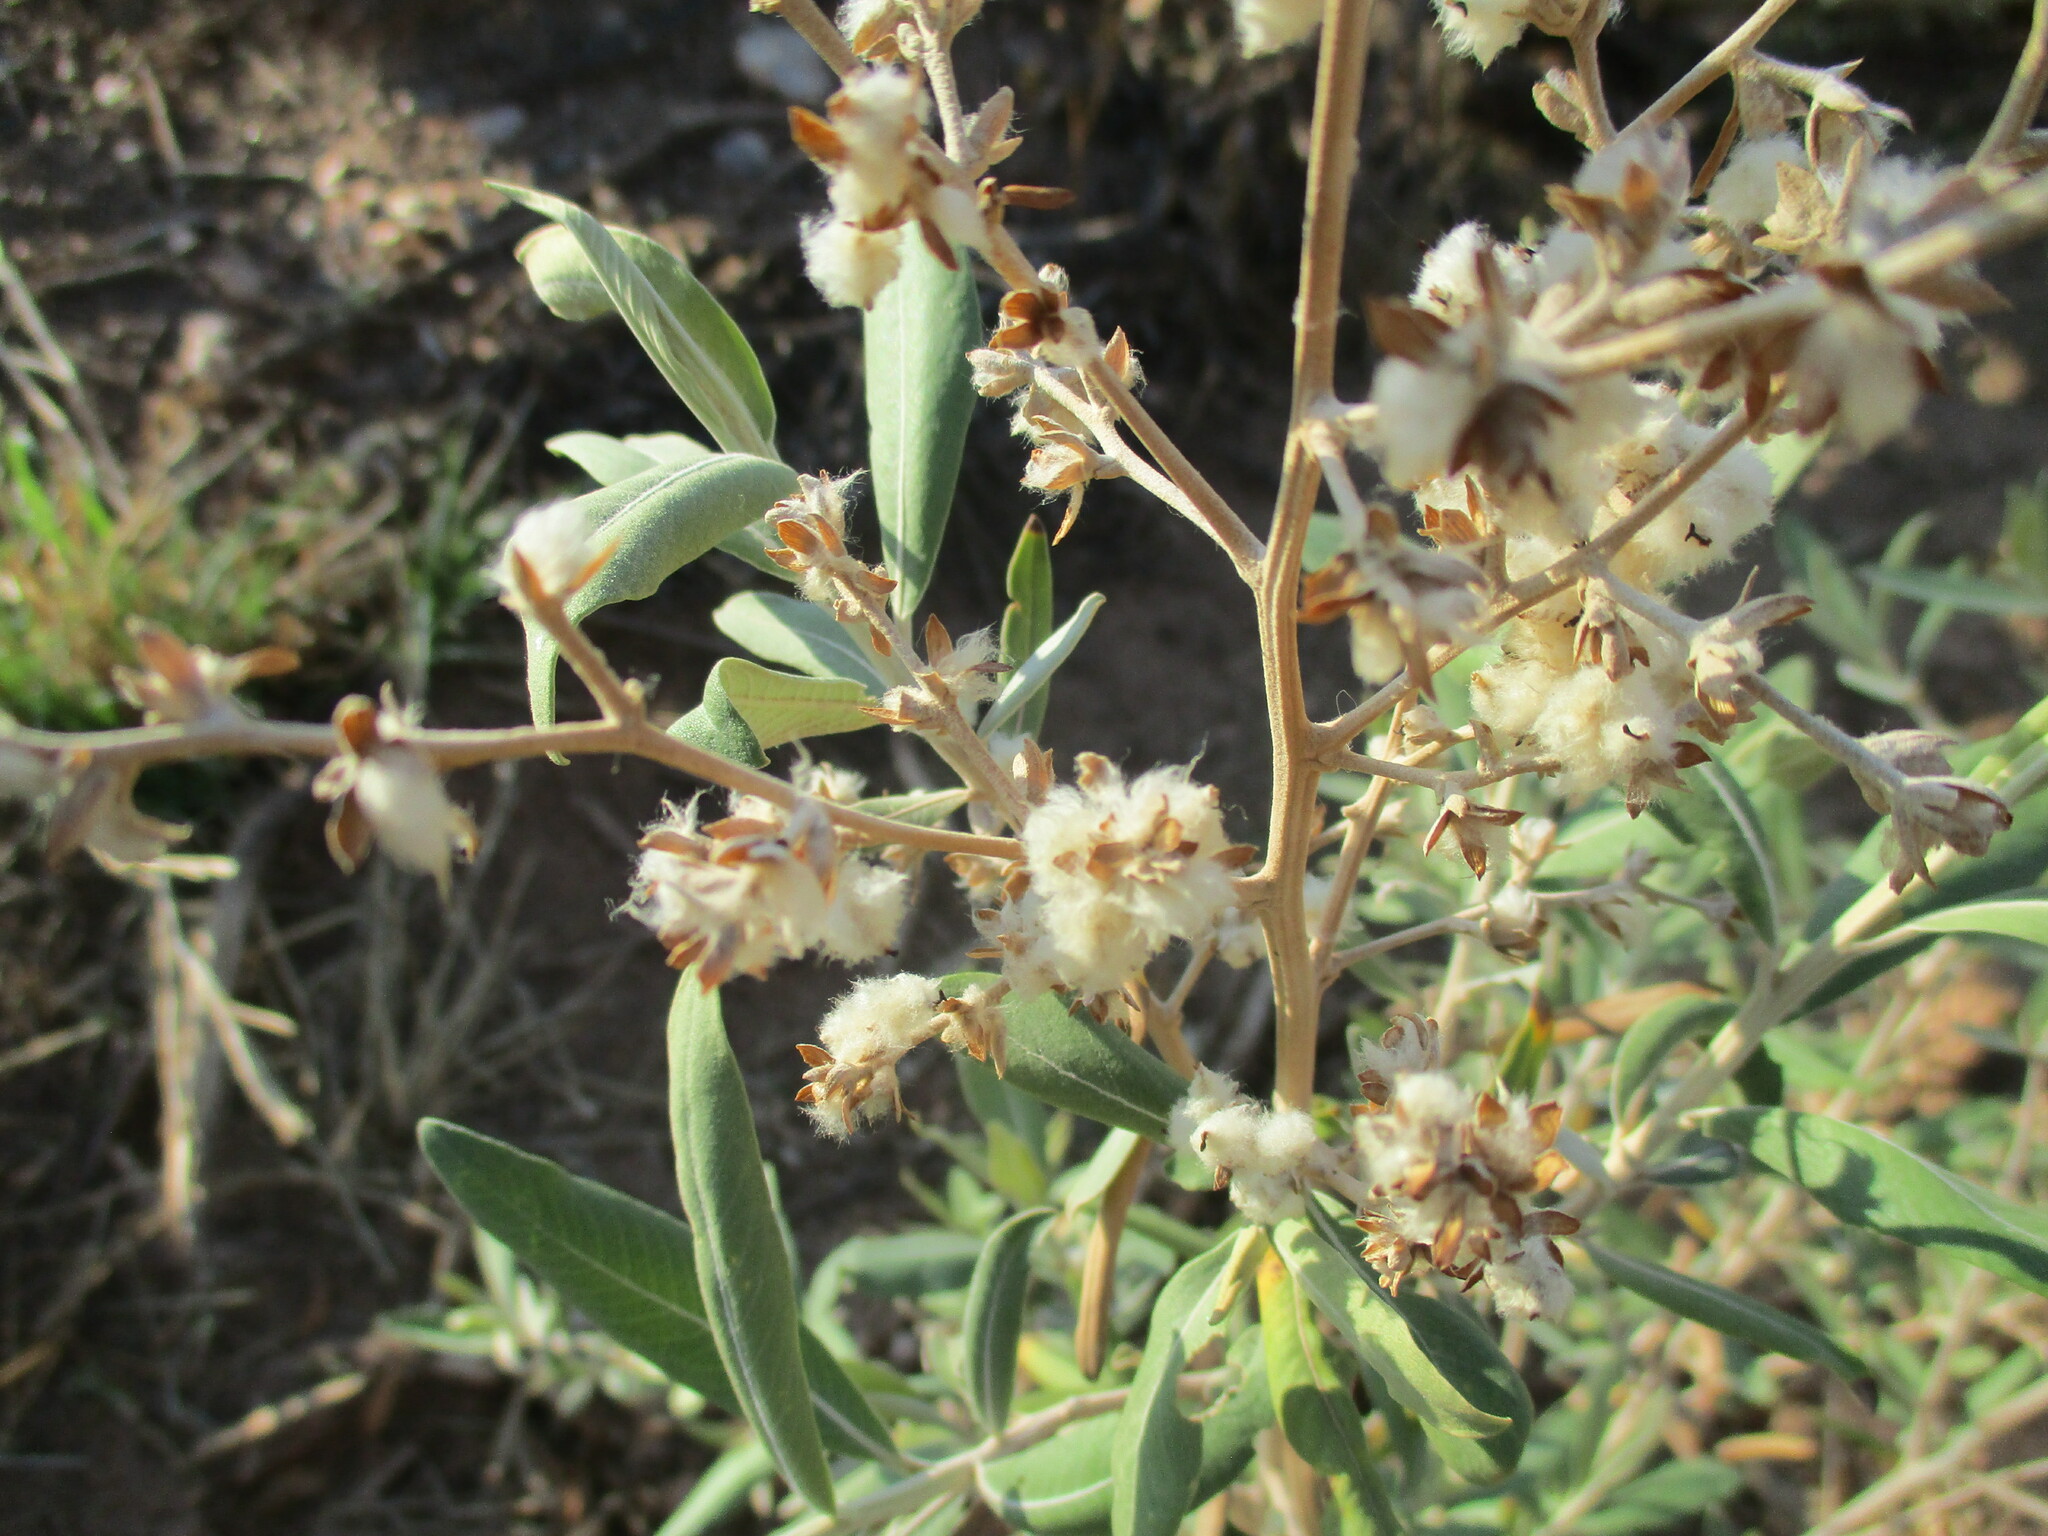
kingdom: Plantae
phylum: Tracheophyta
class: Magnoliopsida
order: Asterales
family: Asteraceae
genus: Tarchonanthus
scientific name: Tarchonanthus camphoratus
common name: Camphorwood
